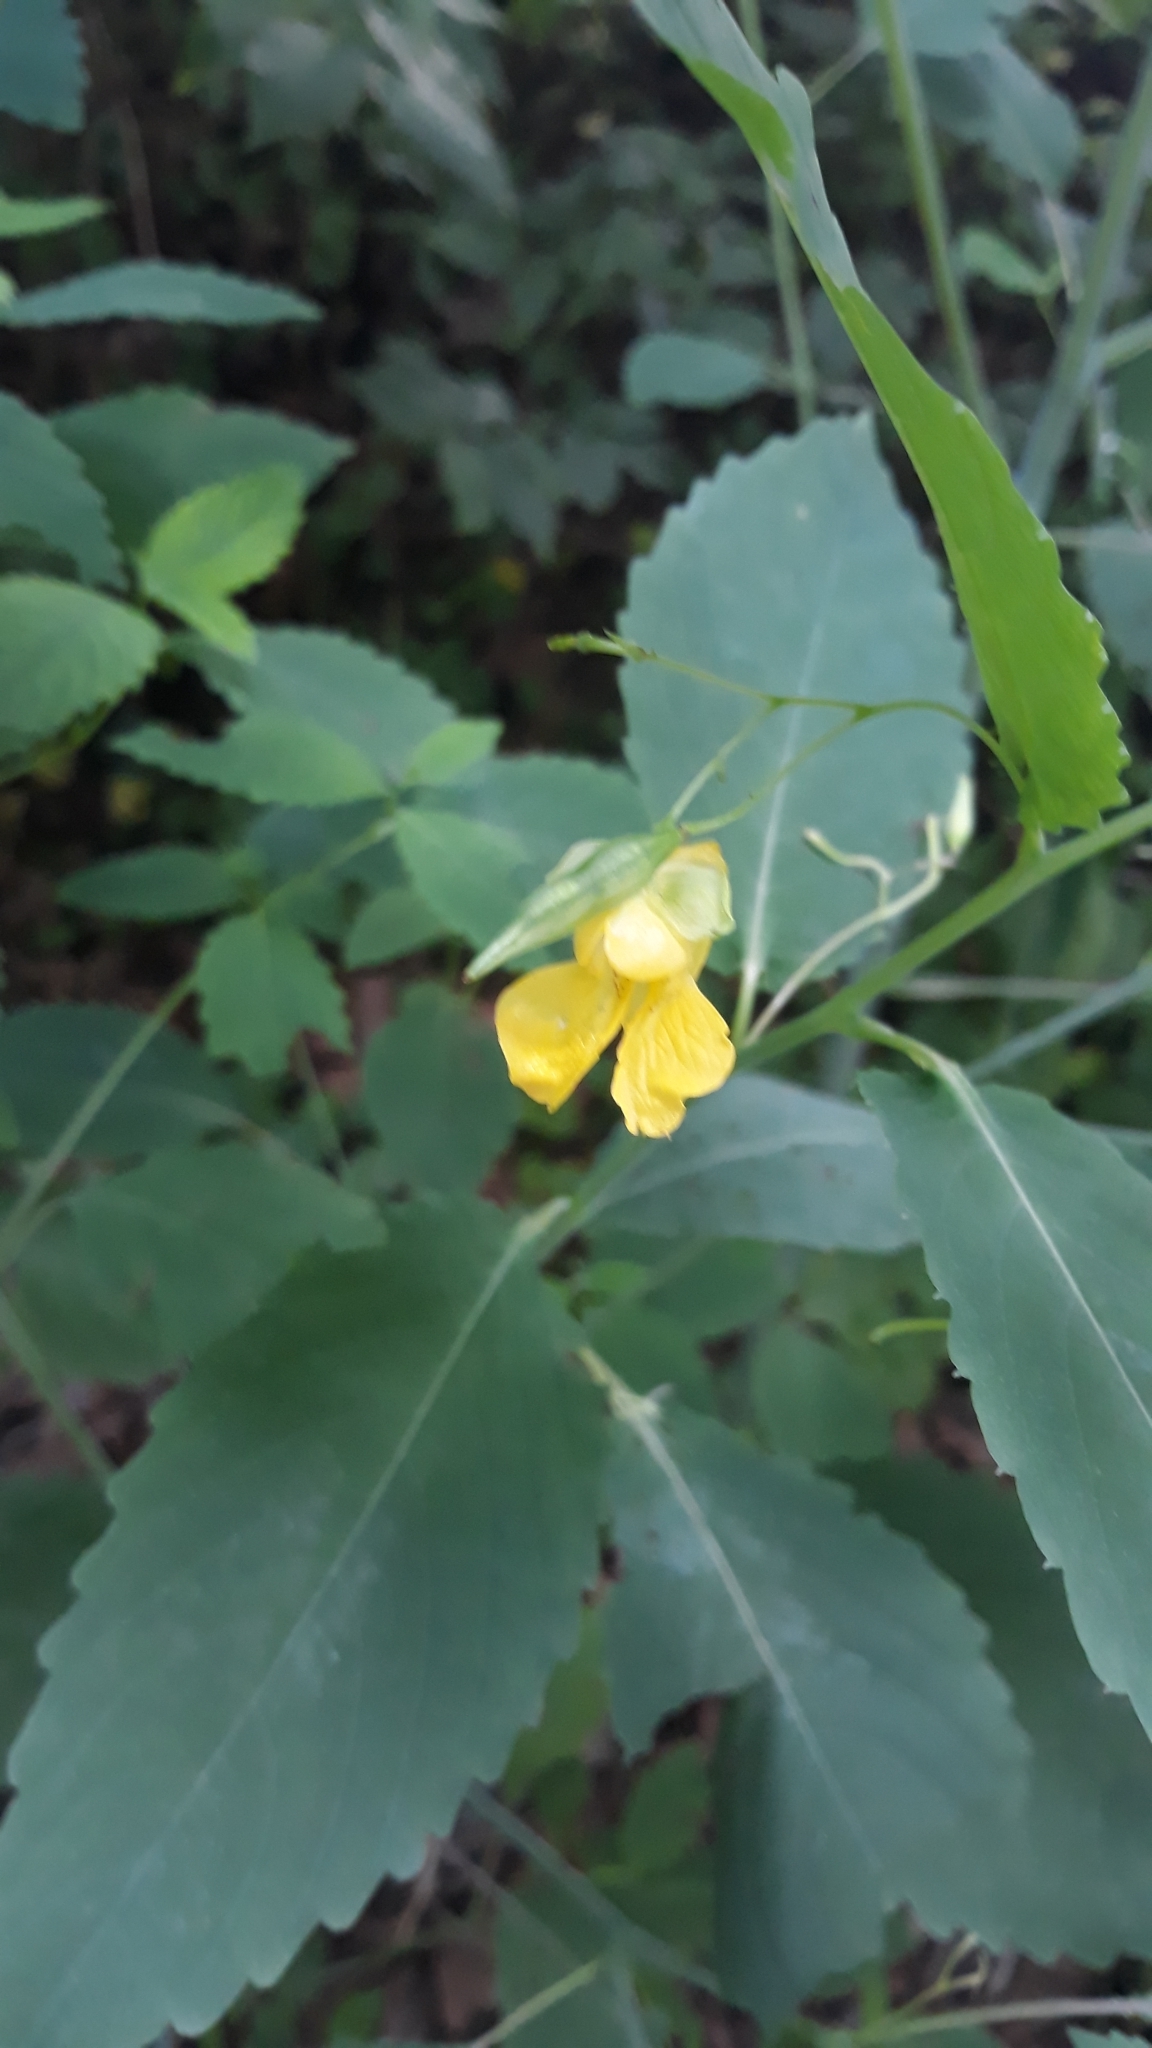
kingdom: Plantae
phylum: Tracheophyta
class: Magnoliopsida
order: Ericales
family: Balsaminaceae
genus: Impatiens
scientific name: Impatiens pallida
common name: Pale snapweed
